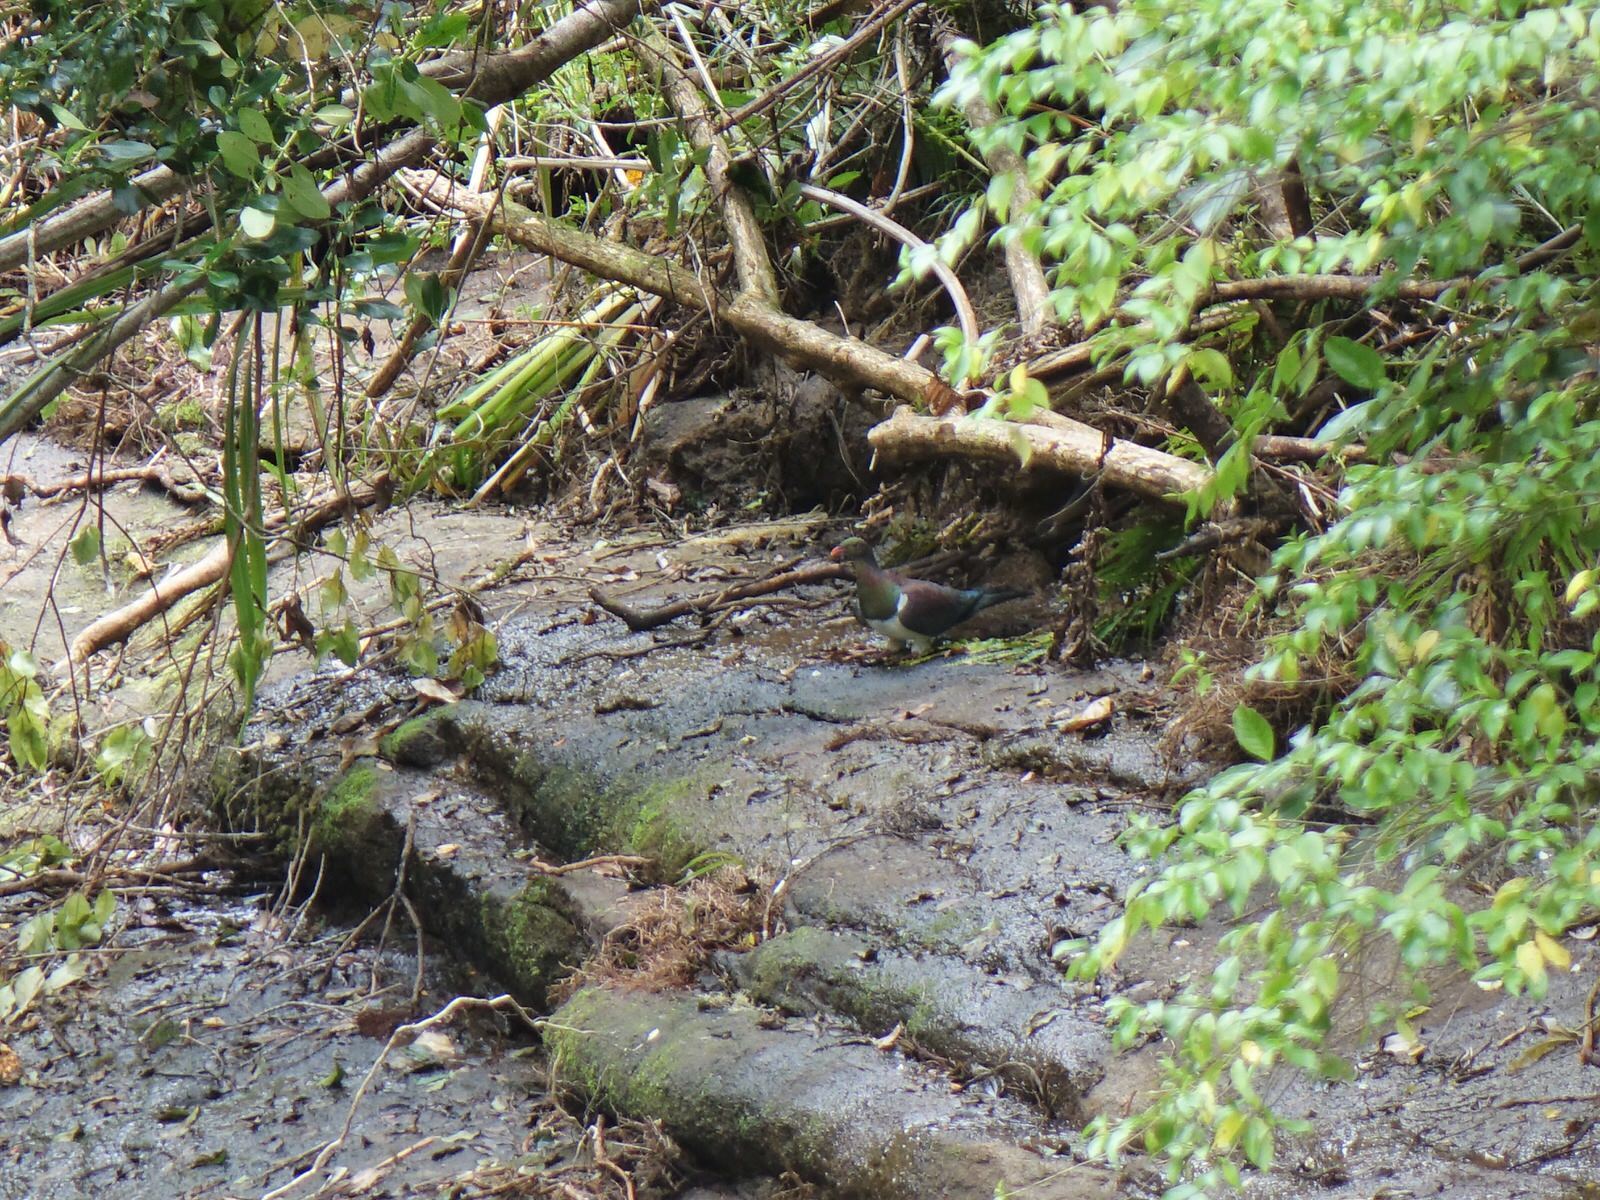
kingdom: Animalia
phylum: Chordata
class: Aves
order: Columbiformes
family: Columbidae
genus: Hemiphaga
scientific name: Hemiphaga novaeseelandiae
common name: New zealand pigeon
